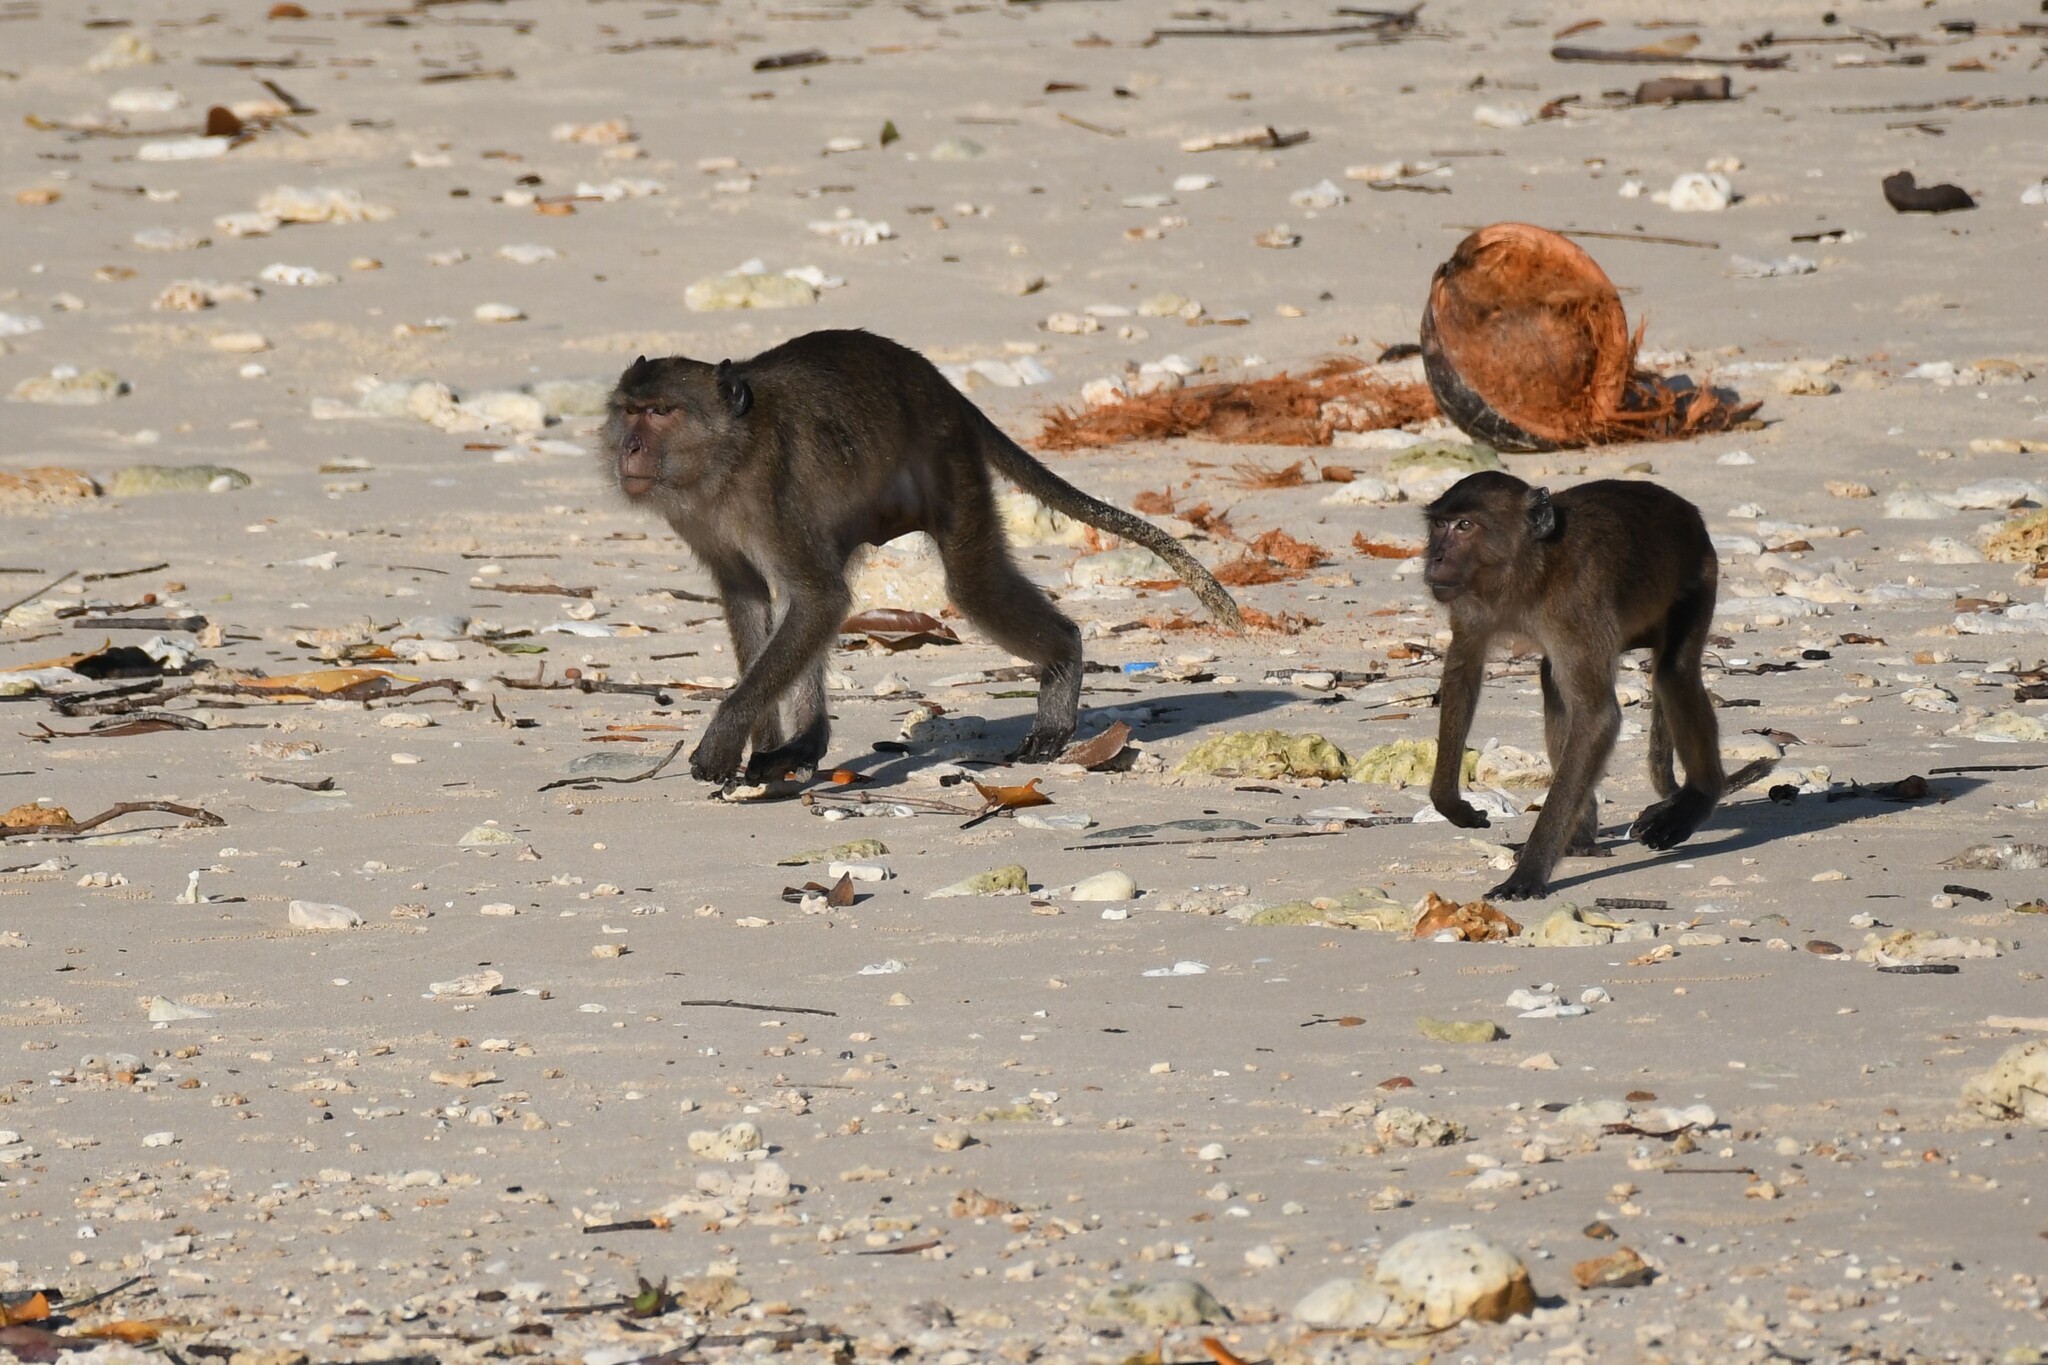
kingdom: Animalia
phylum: Chordata
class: Mammalia
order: Primates
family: Cercopithecidae
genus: Macaca
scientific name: Macaca fascicularis
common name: Crab-eating macaque
